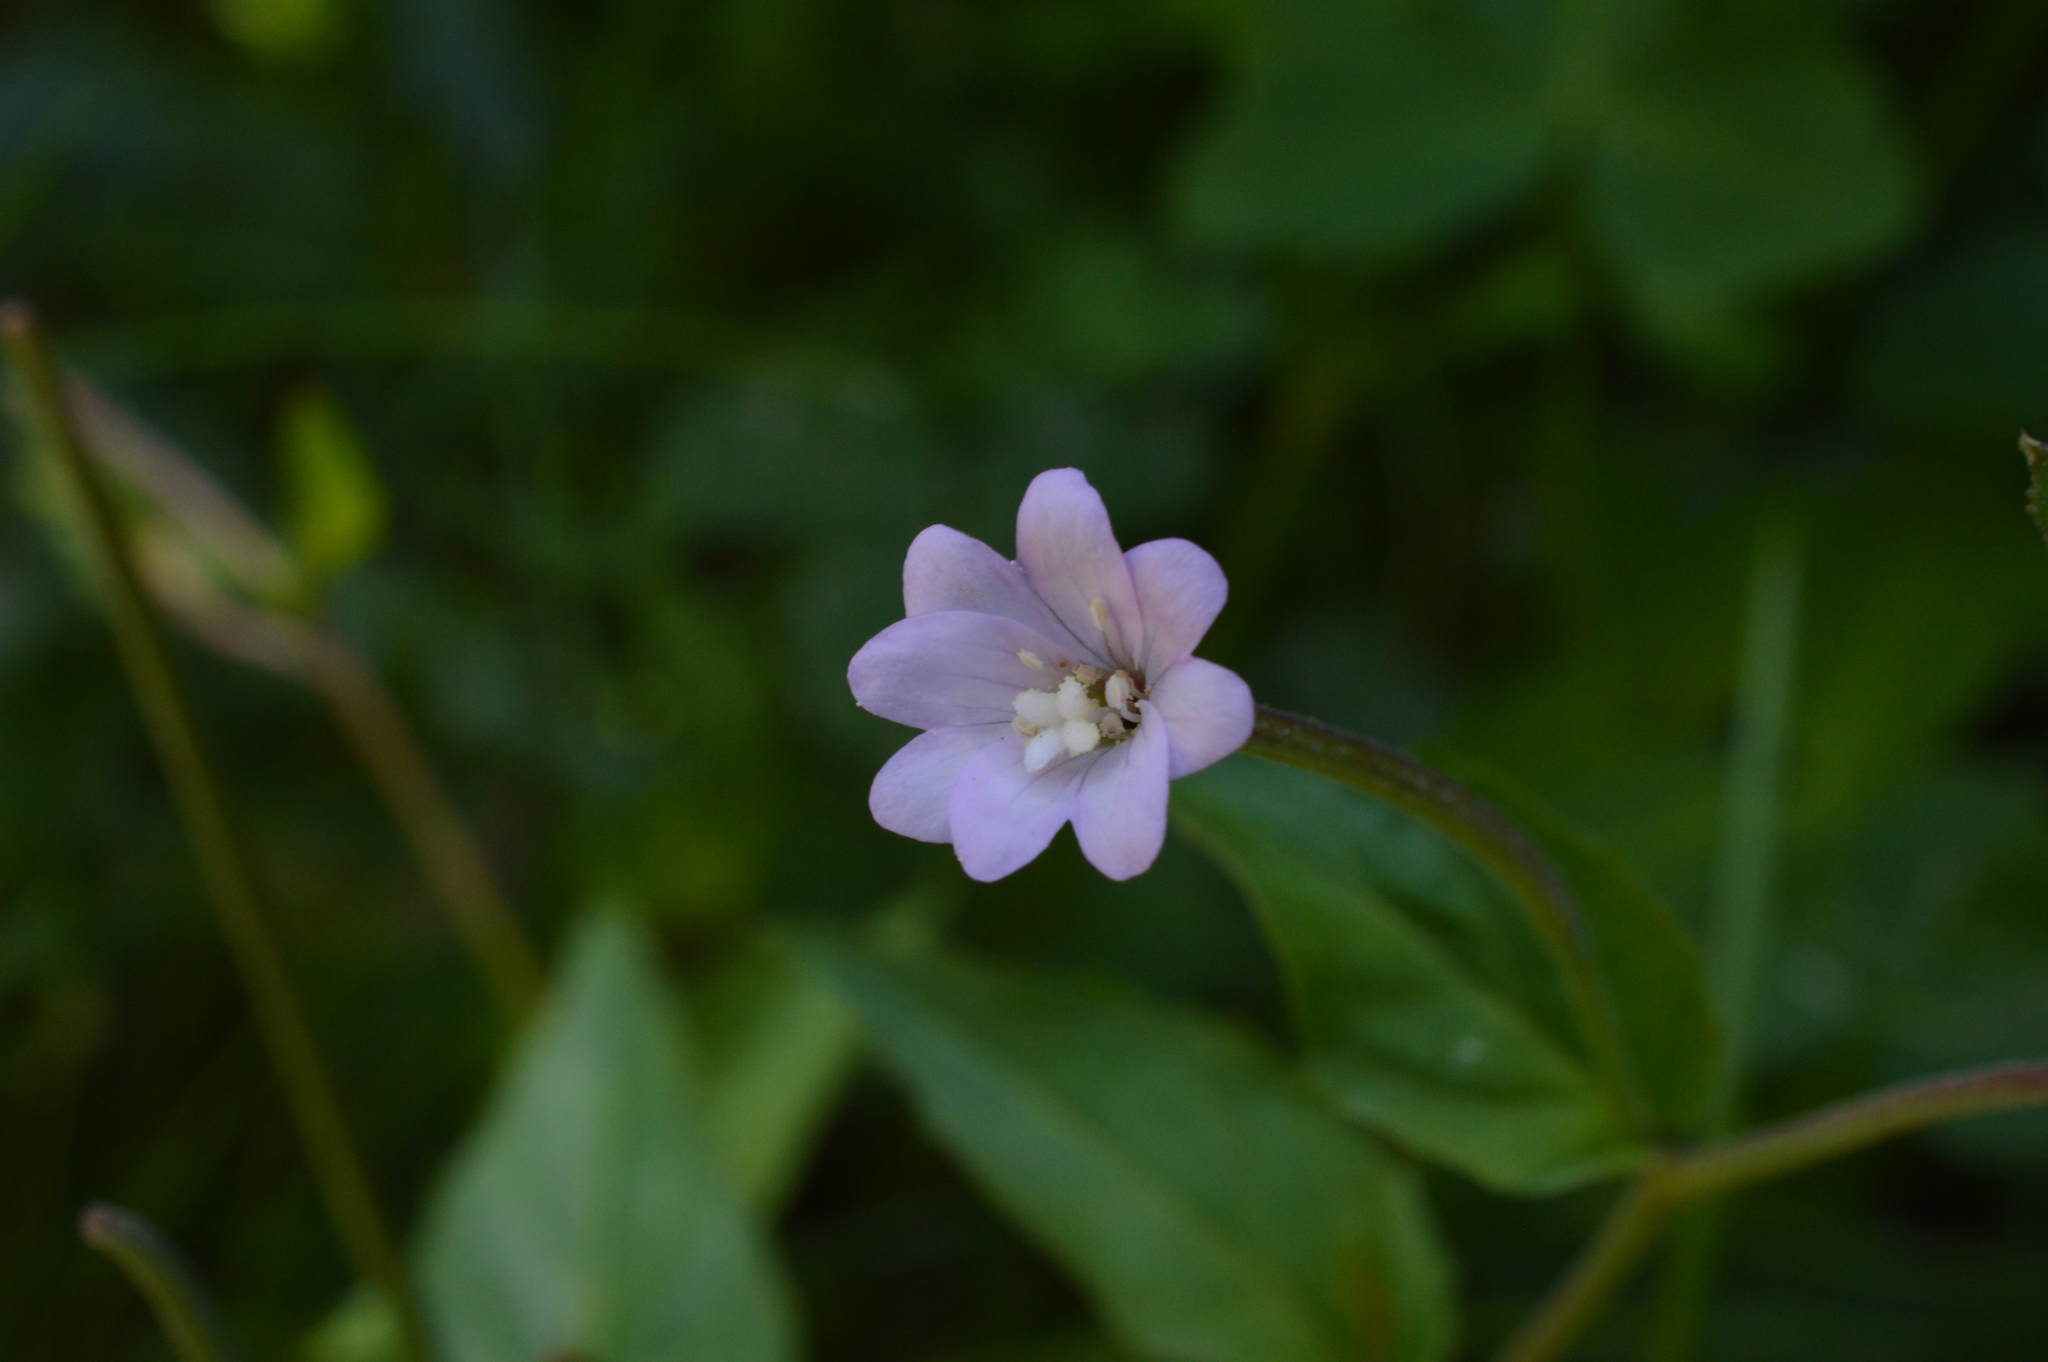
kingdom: Plantae
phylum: Tracheophyta
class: Magnoliopsida
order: Myrtales
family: Onagraceae
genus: Epilobium
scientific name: Epilobium montanum
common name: Broad-leaved willowherb
